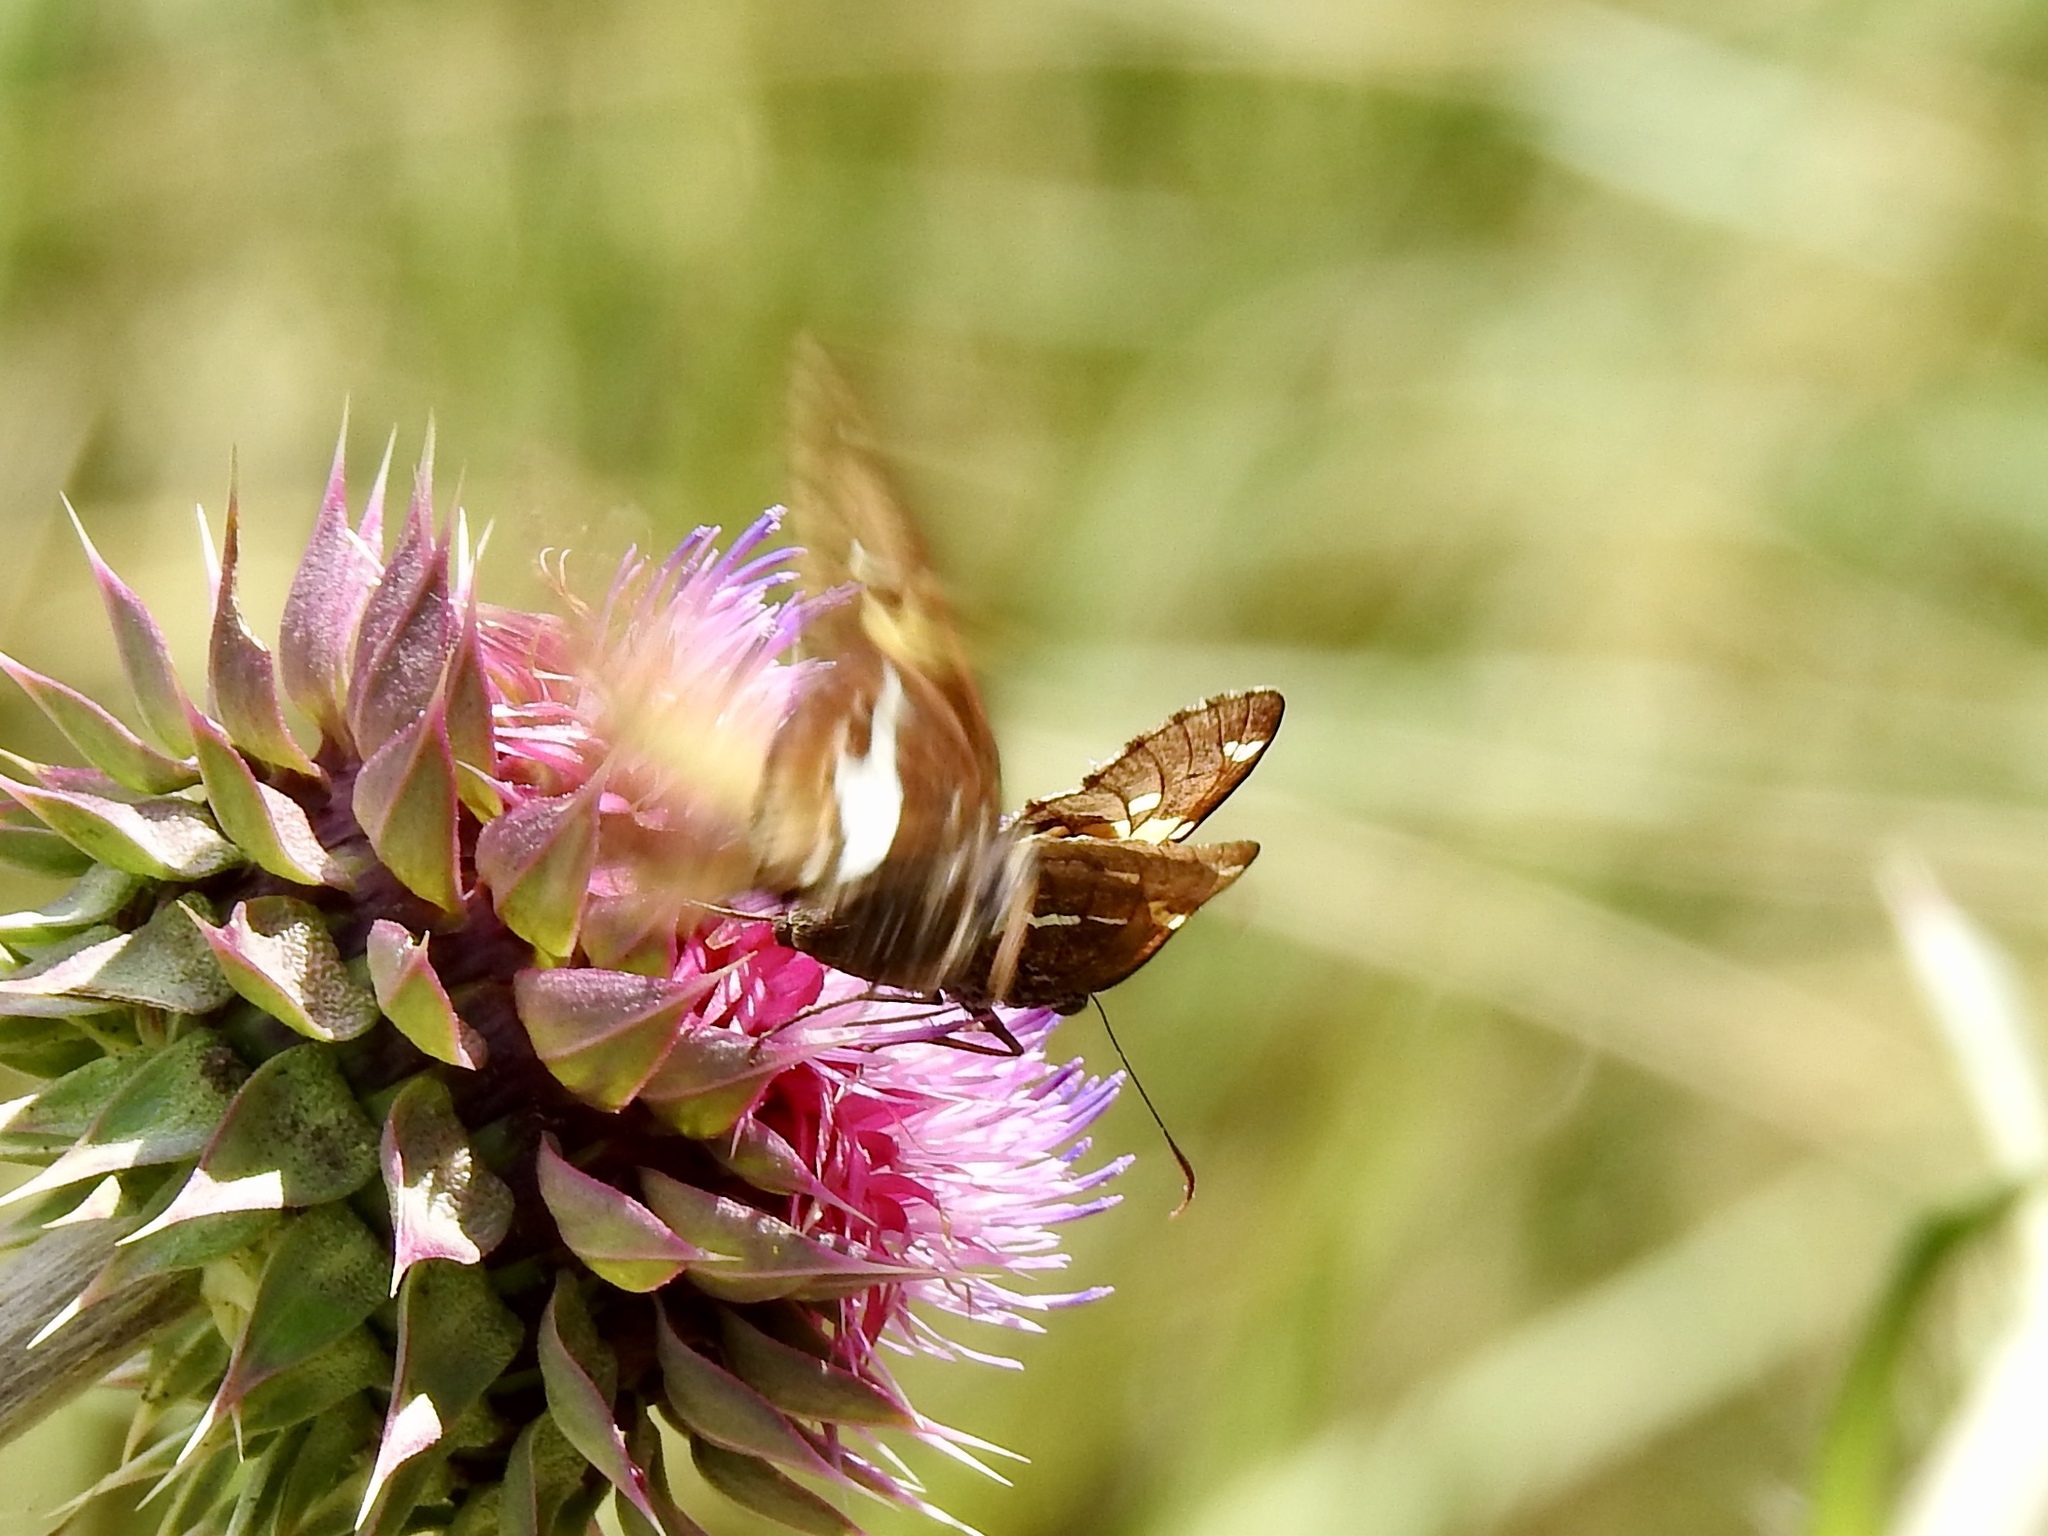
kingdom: Animalia
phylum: Arthropoda
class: Insecta
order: Lepidoptera
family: Hesperiidae
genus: Epargyreus
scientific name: Epargyreus clarus
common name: Silver-spotted skipper
